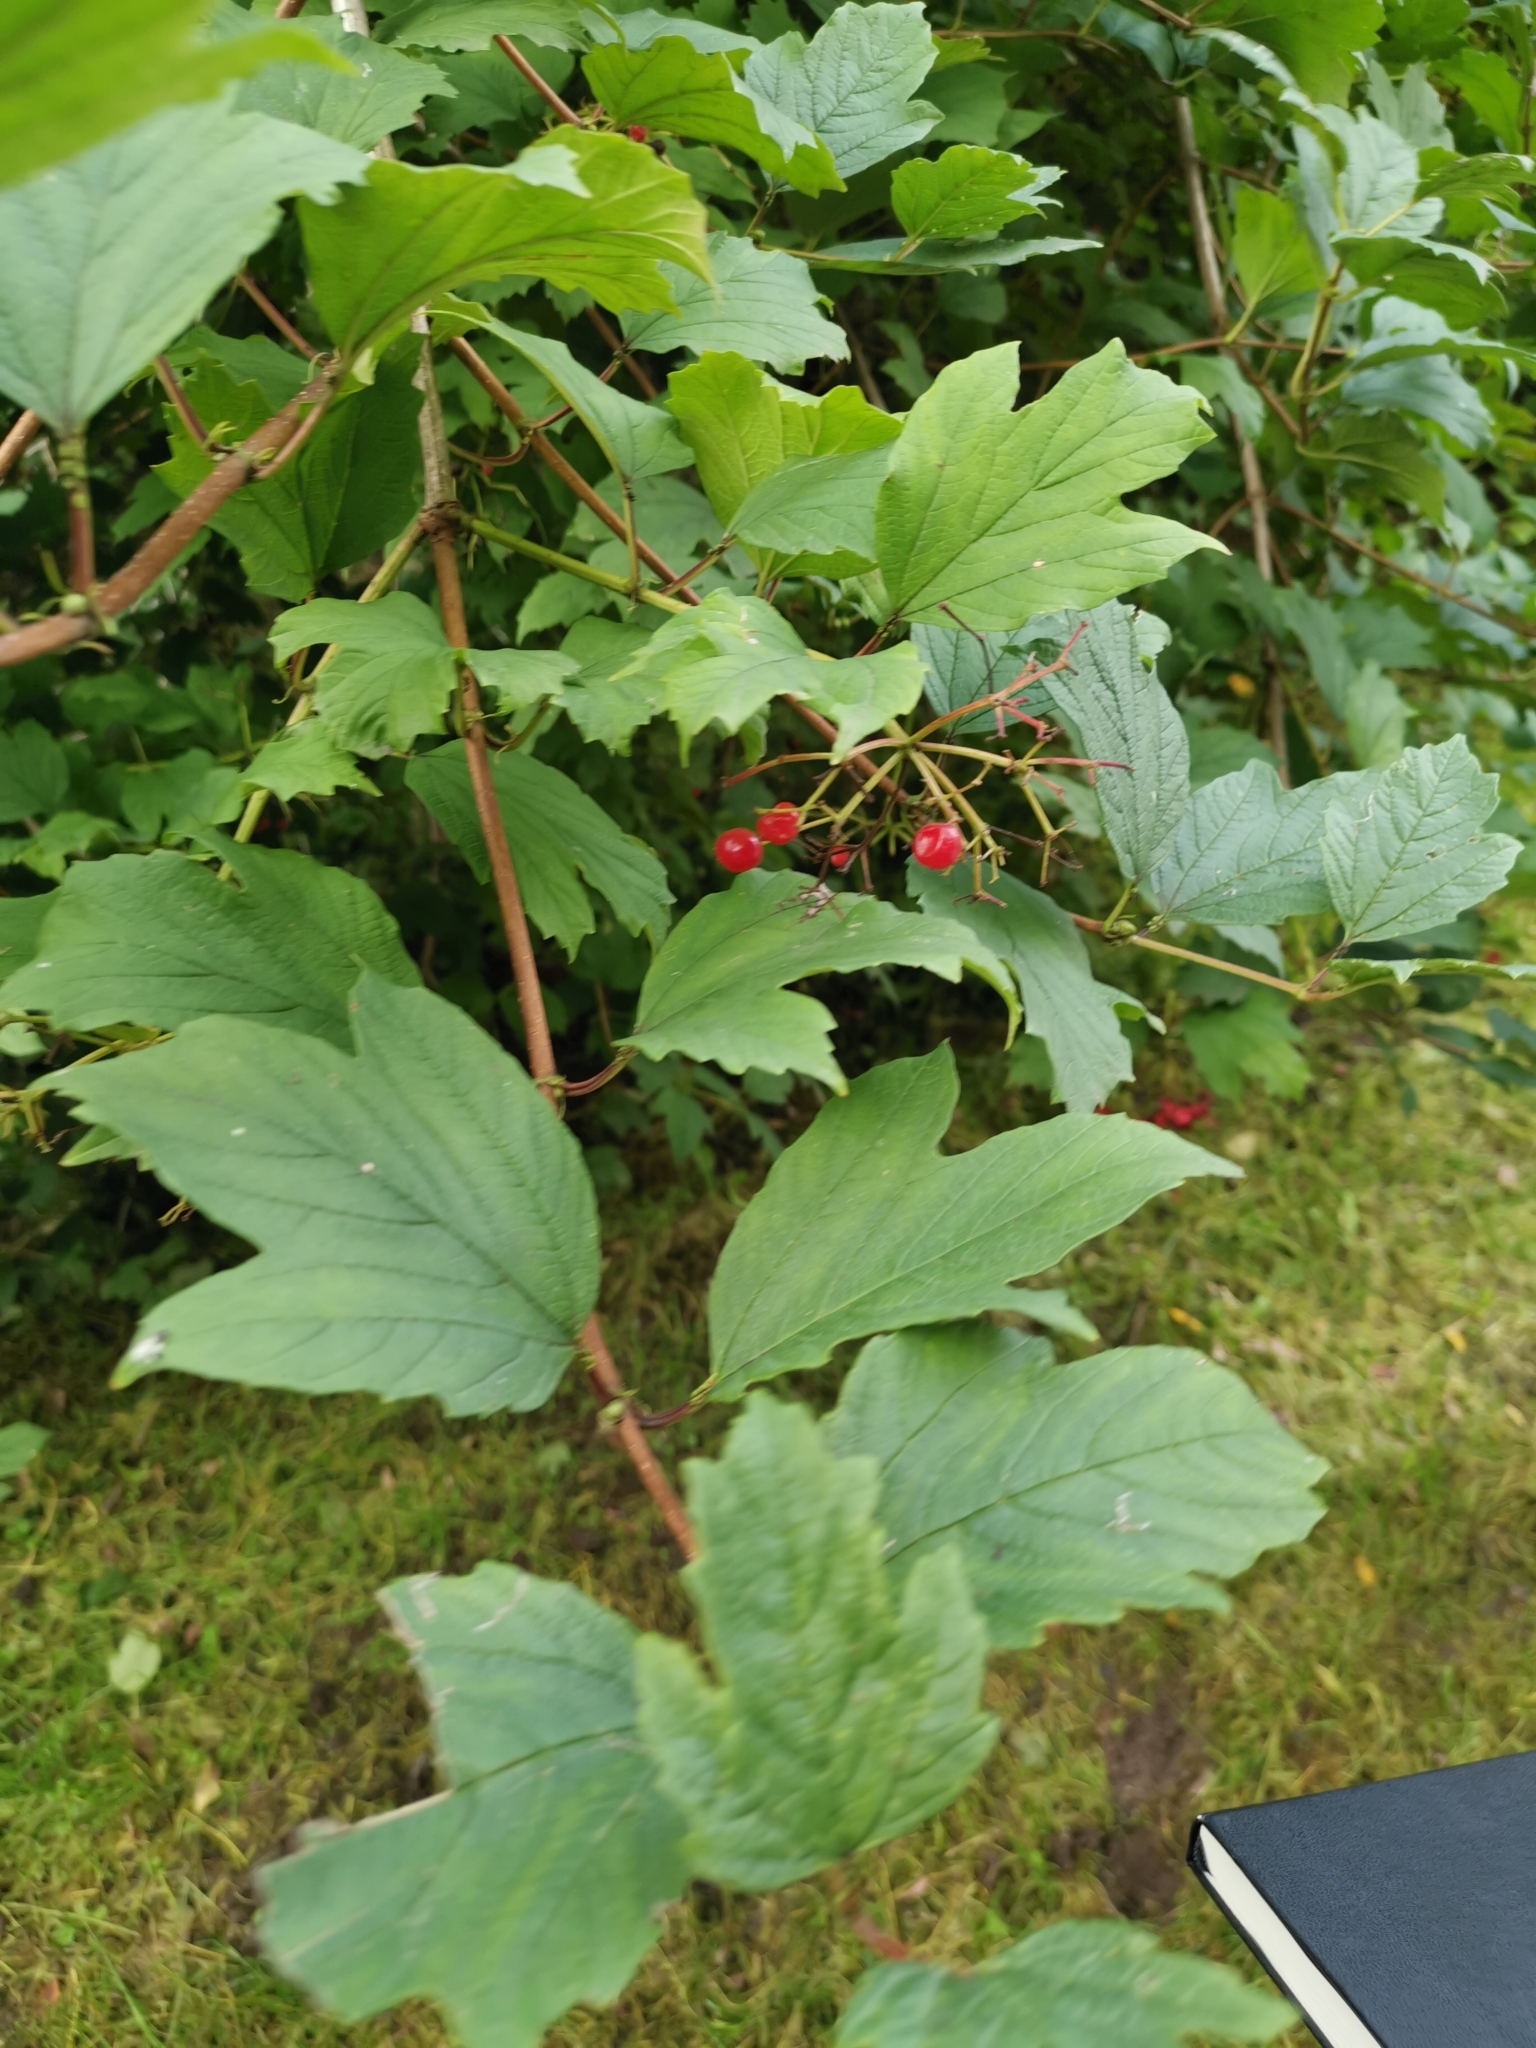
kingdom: Plantae
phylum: Tracheophyta
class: Magnoliopsida
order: Dipsacales
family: Viburnaceae
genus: Viburnum
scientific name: Viburnum opulus
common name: Guelder-rose
